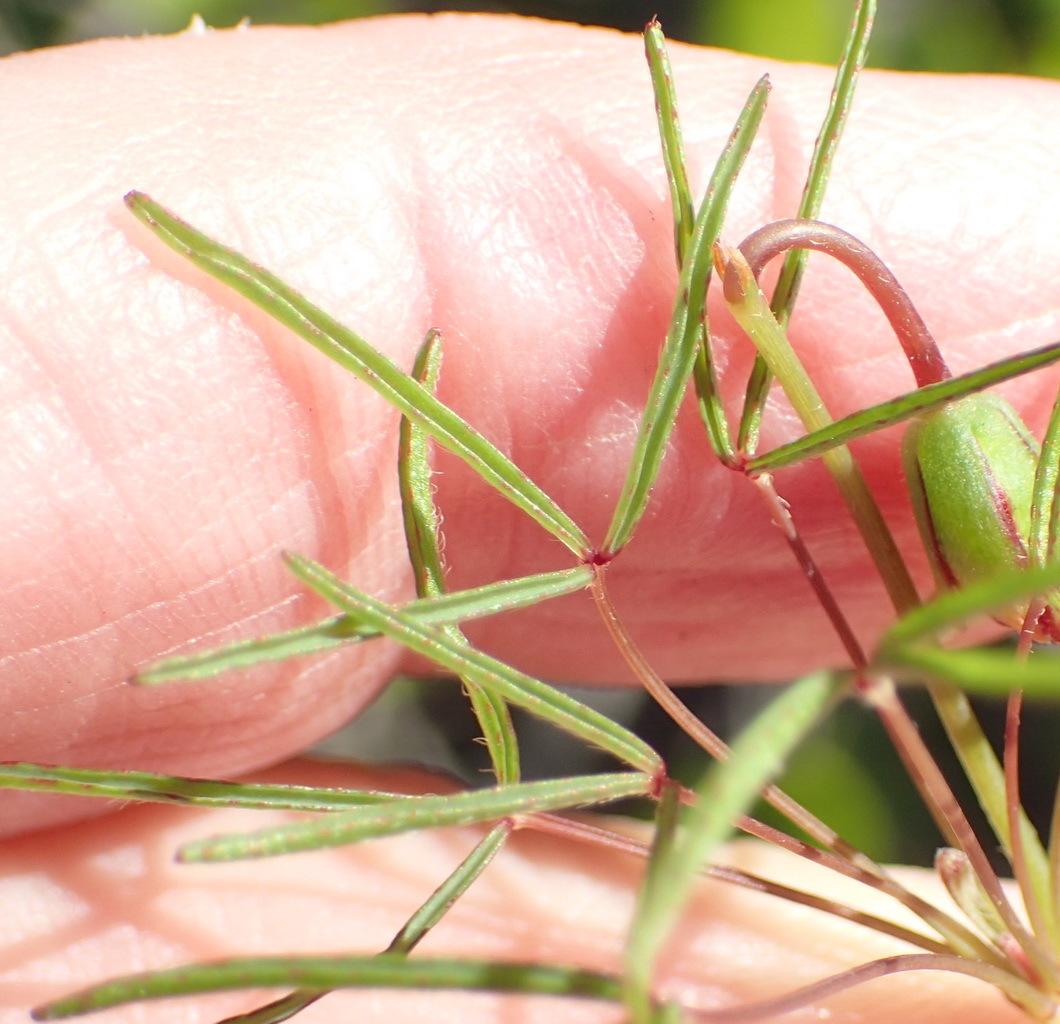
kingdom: Plantae
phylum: Tracheophyta
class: Magnoliopsida
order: Oxalidales
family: Oxalidaceae
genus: Oxalis
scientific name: Oxalis pendulifolia
